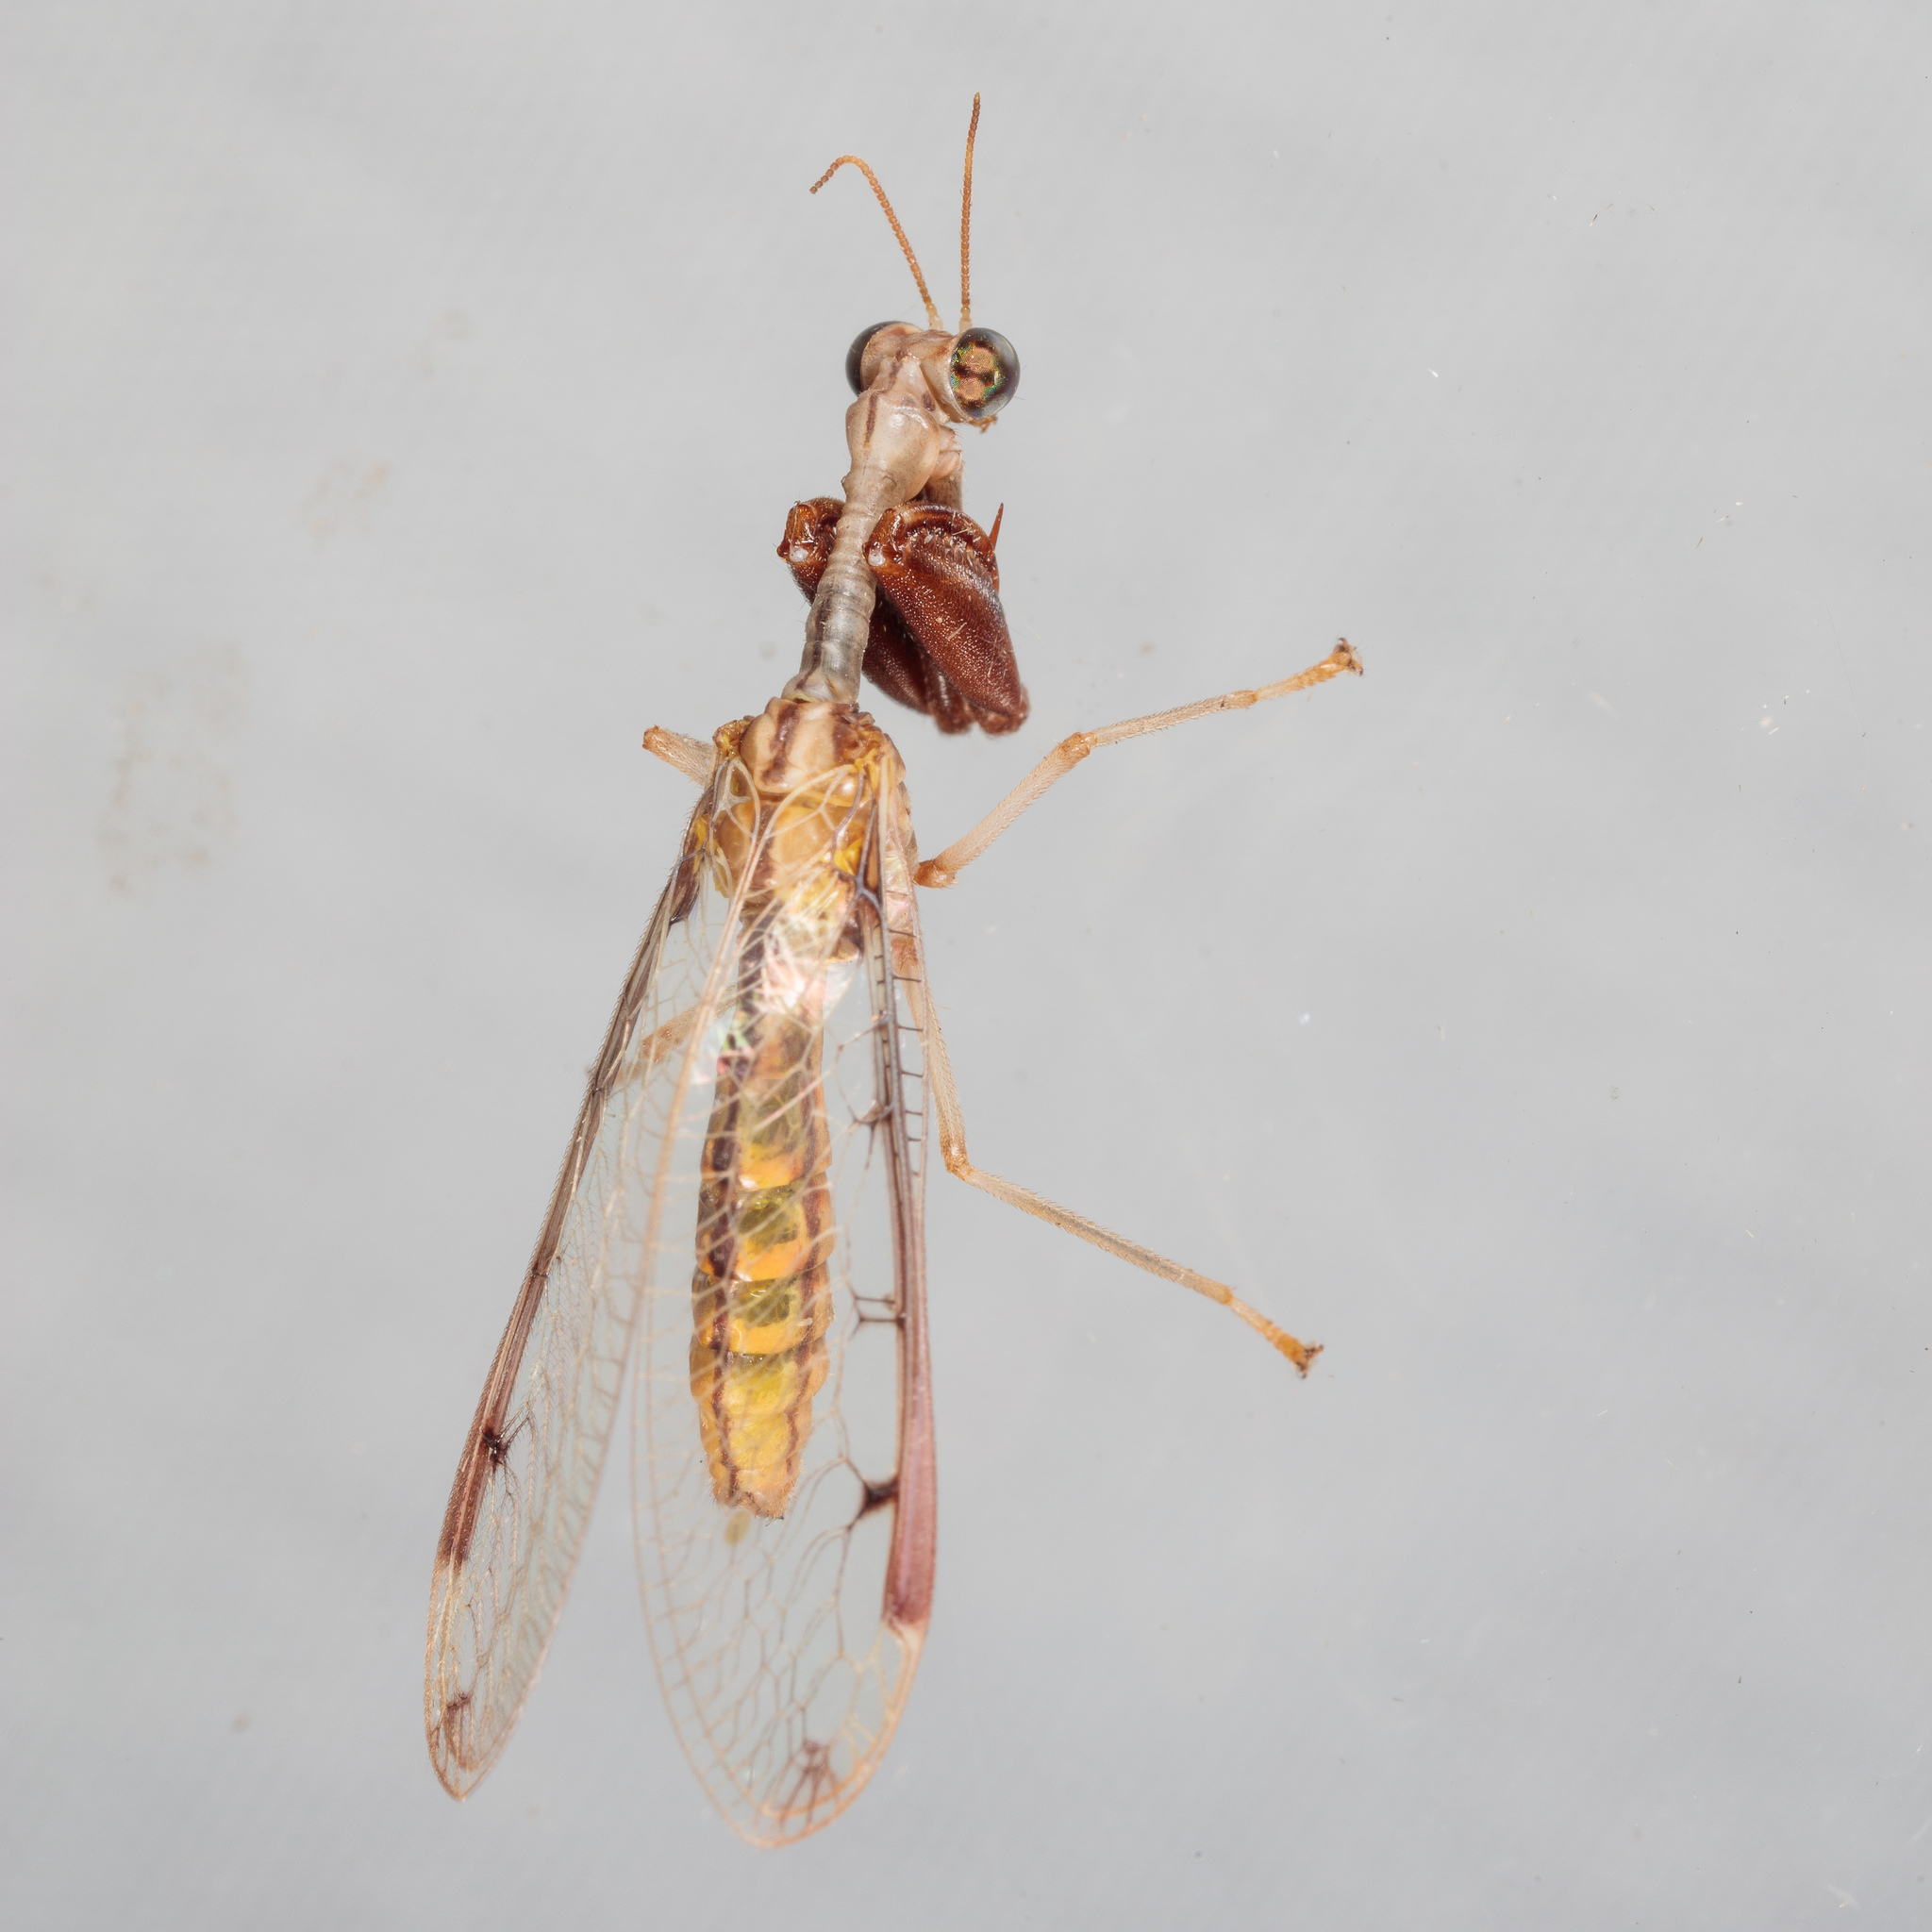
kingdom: Animalia
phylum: Arthropoda
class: Insecta
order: Neuroptera
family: Mantispidae
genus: Dicromantispa
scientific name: Dicromantispa interrupta
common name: Four-spotted mantidfly
